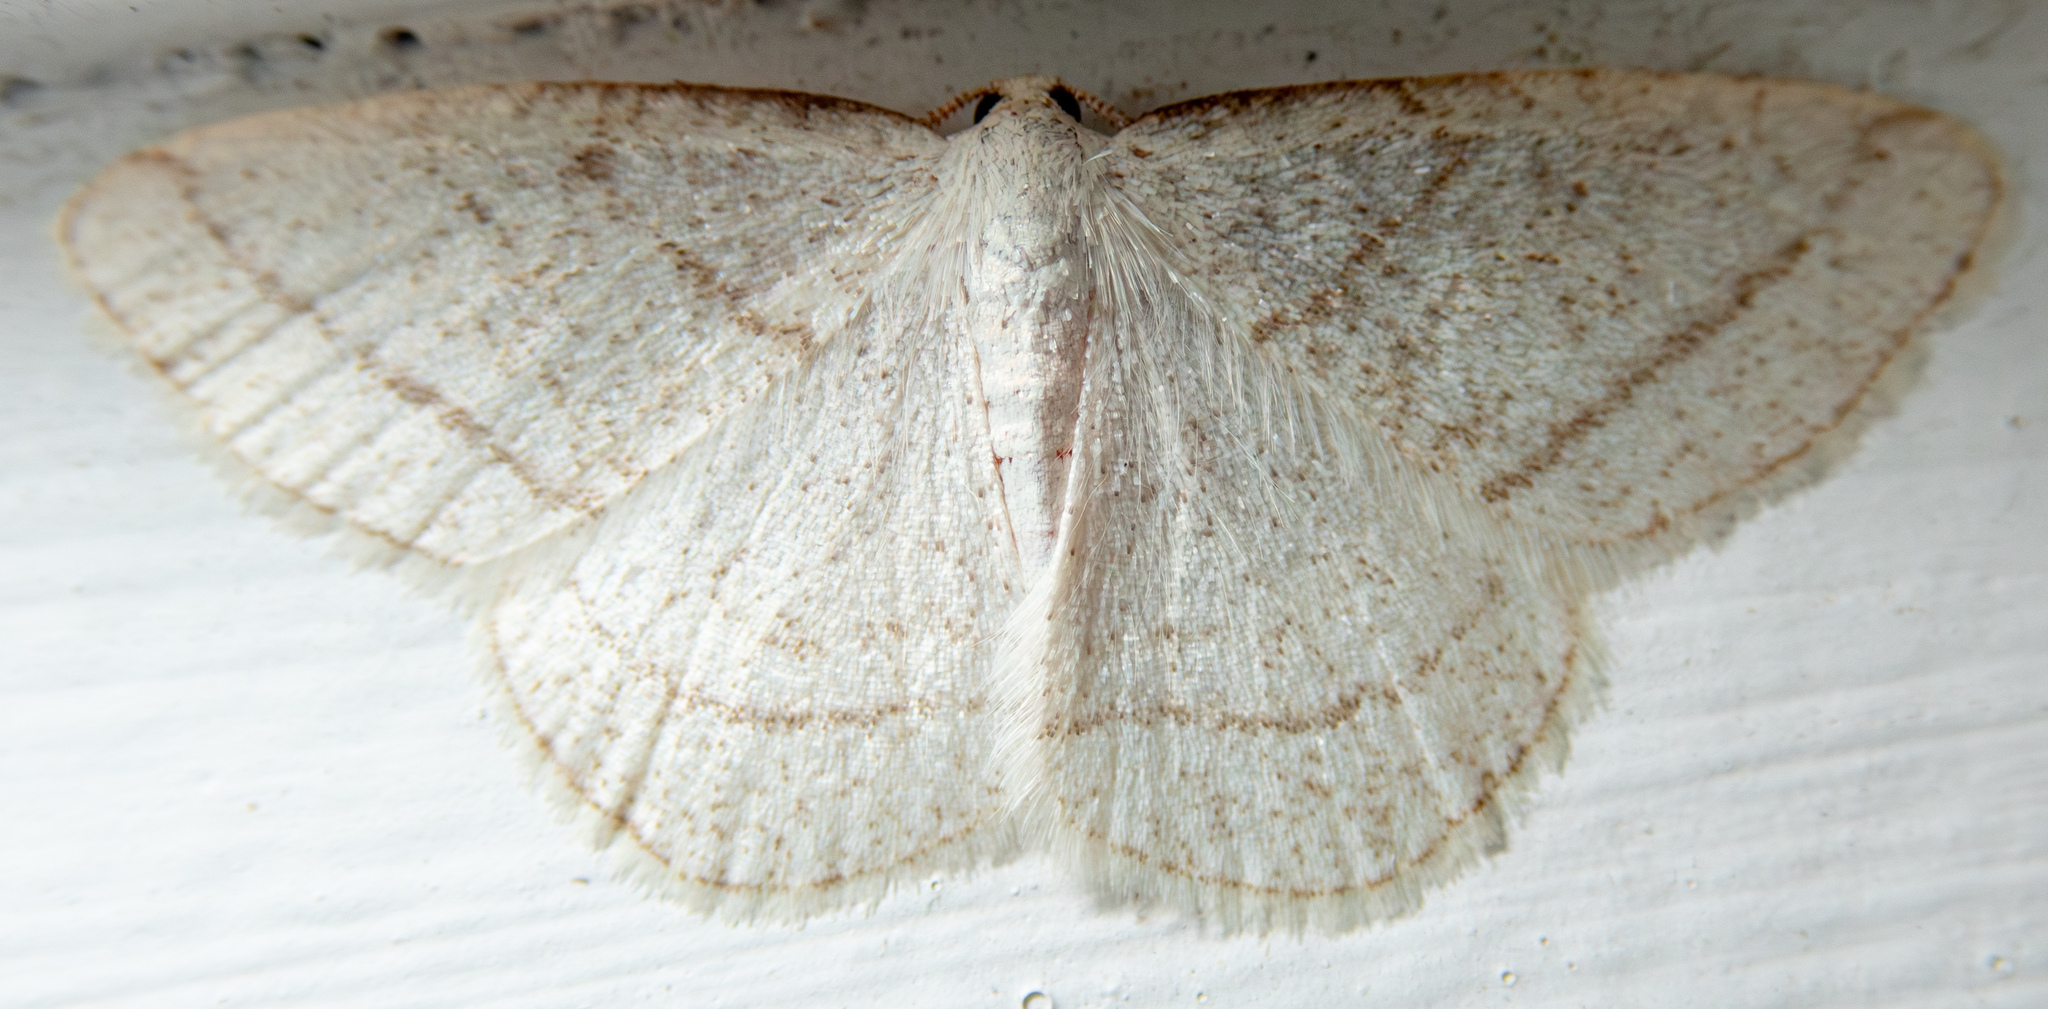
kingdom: Animalia
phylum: Arthropoda
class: Insecta
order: Lepidoptera
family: Geometridae
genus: Protitame
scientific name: Protitame subalbaria
